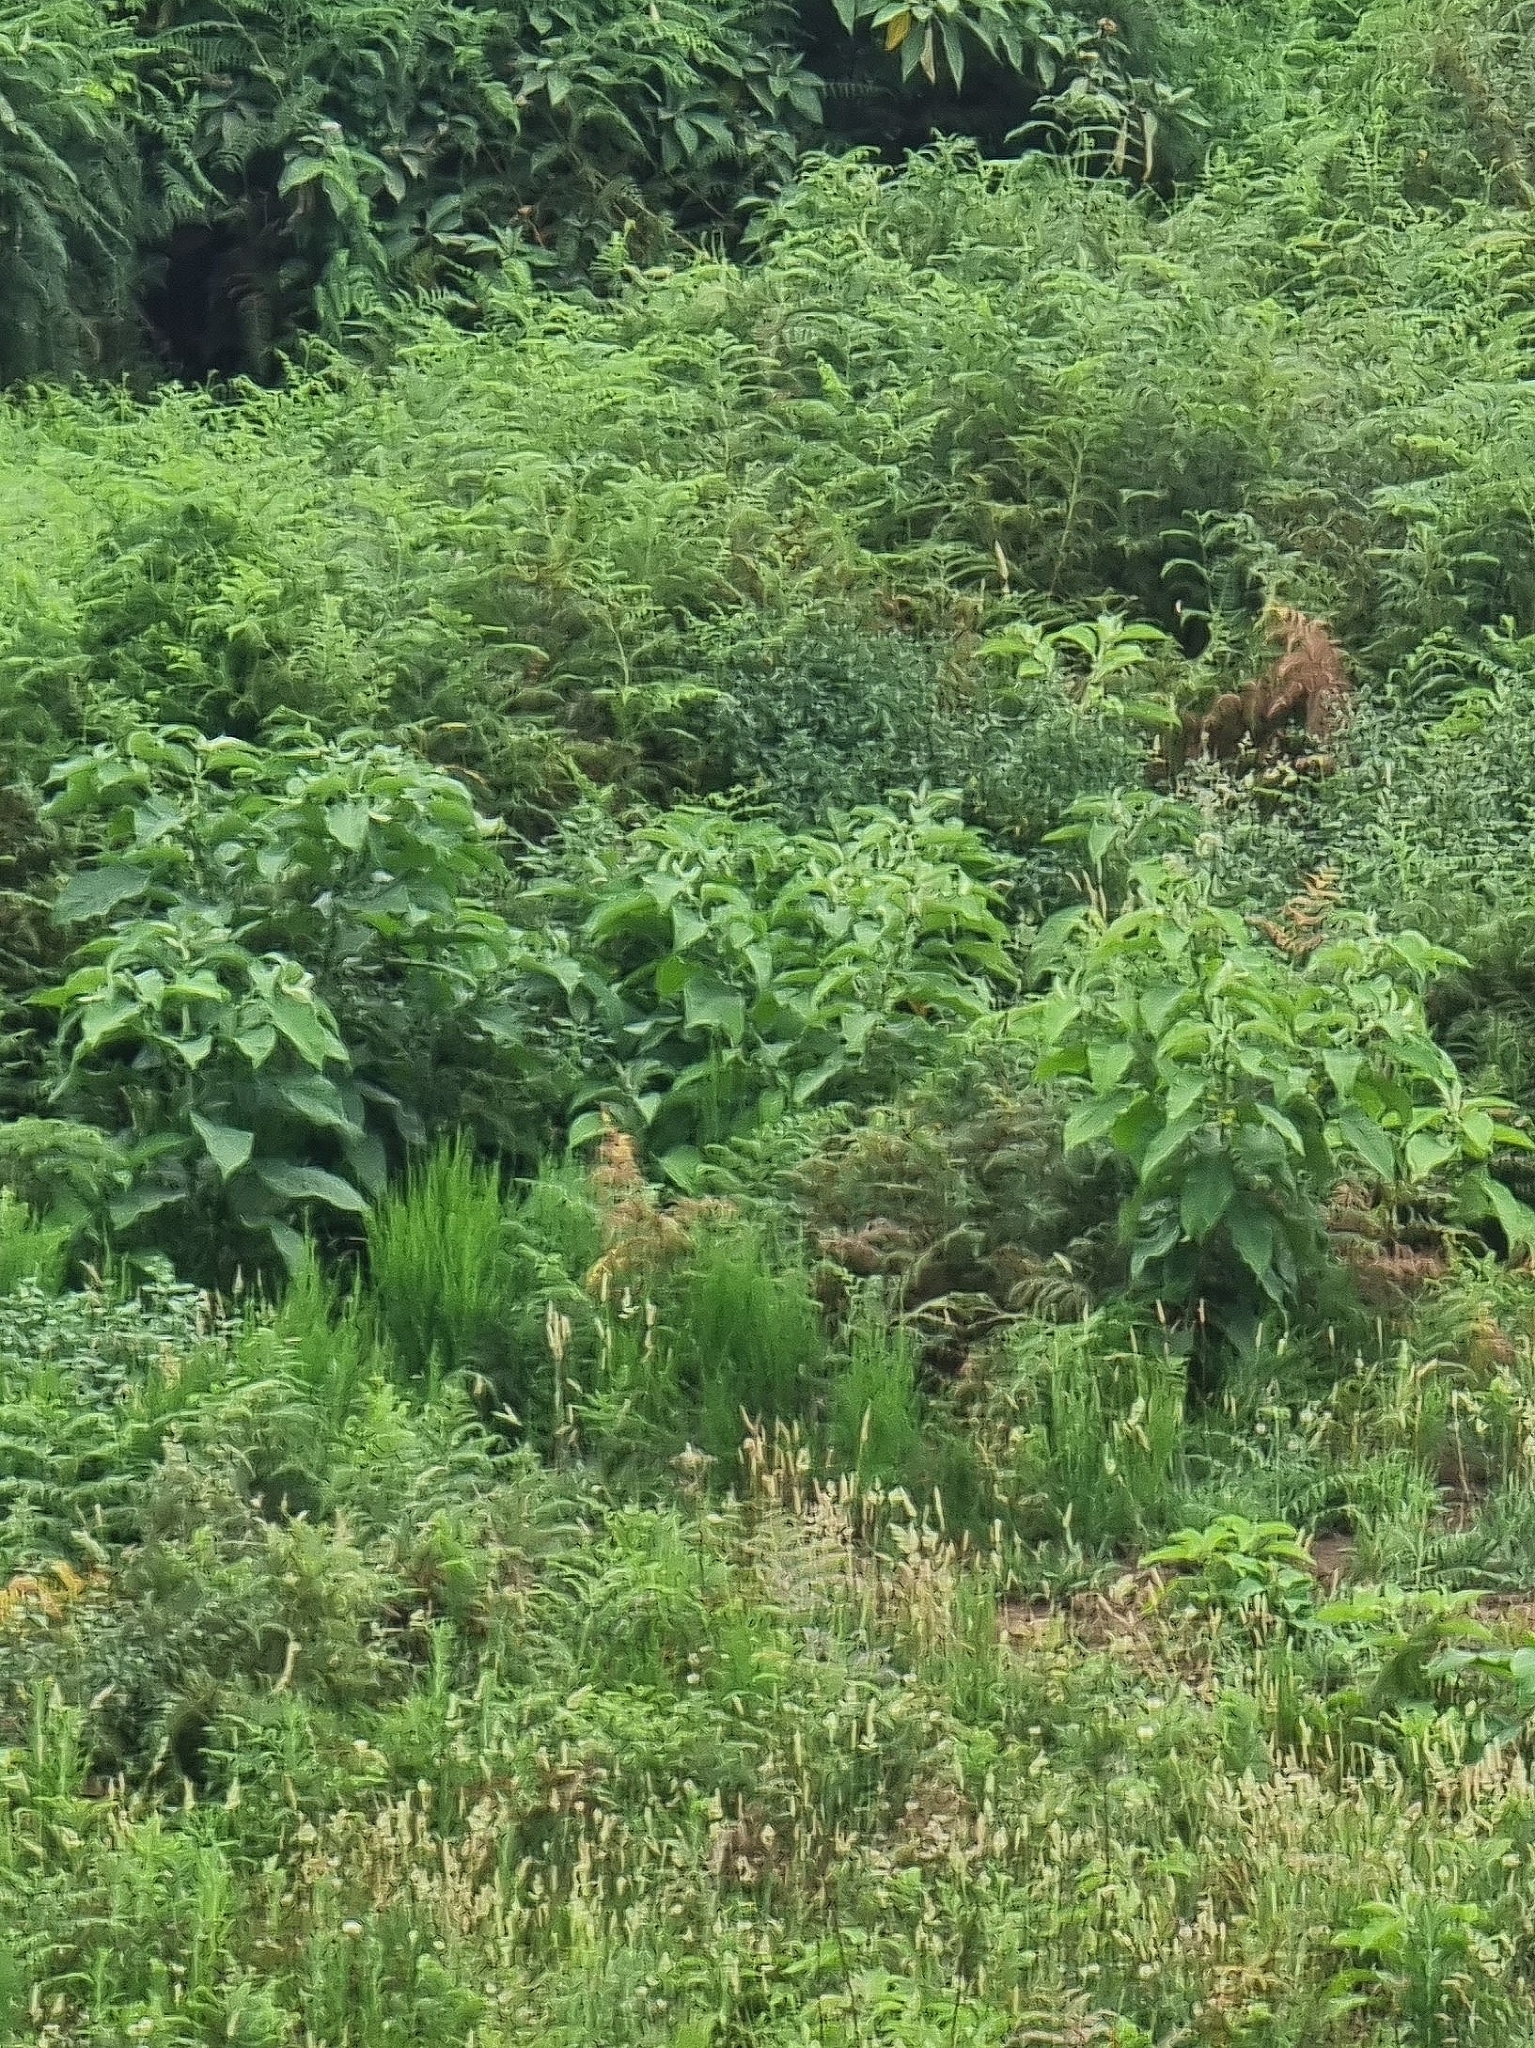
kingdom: Plantae
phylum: Tracheophyta
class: Magnoliopsida
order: Solanales
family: Solanaceae
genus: Solanum
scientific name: Solanum mauritianum
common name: Earleaf nightshade
